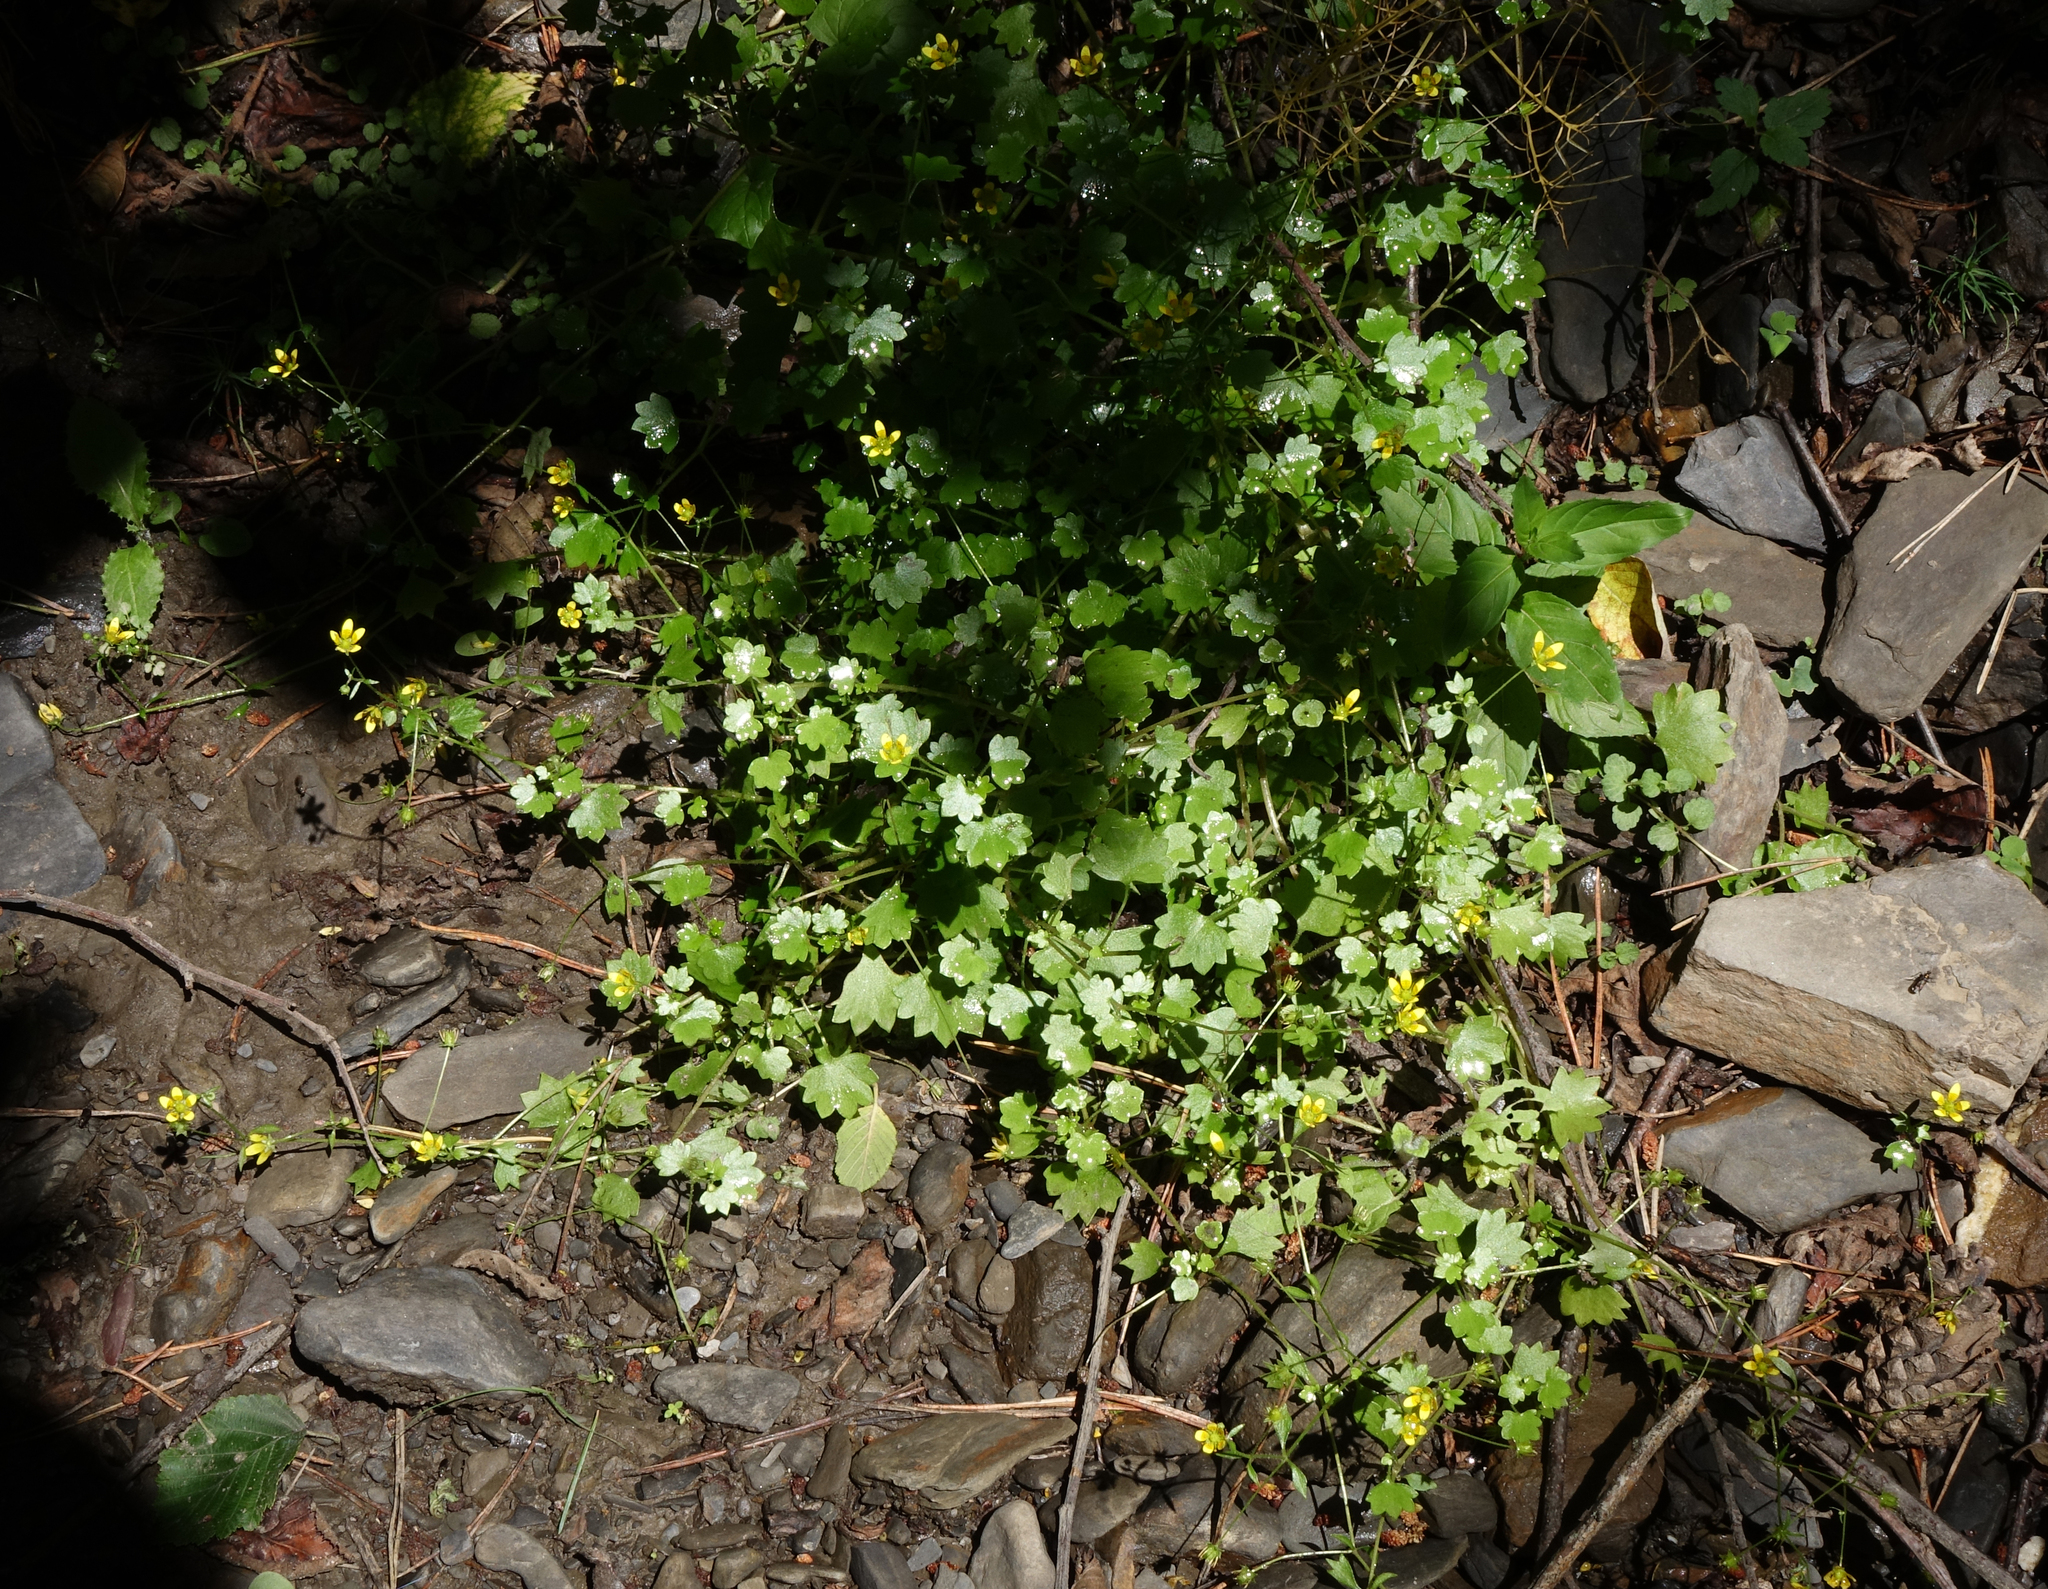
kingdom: Plantae
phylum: Tracheophyta
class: Magnoliopsida
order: Saxifragales
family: Saxifragaceae
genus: Saxifraga
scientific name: Saxifraga cymbalaria
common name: Celandine saxifrage
